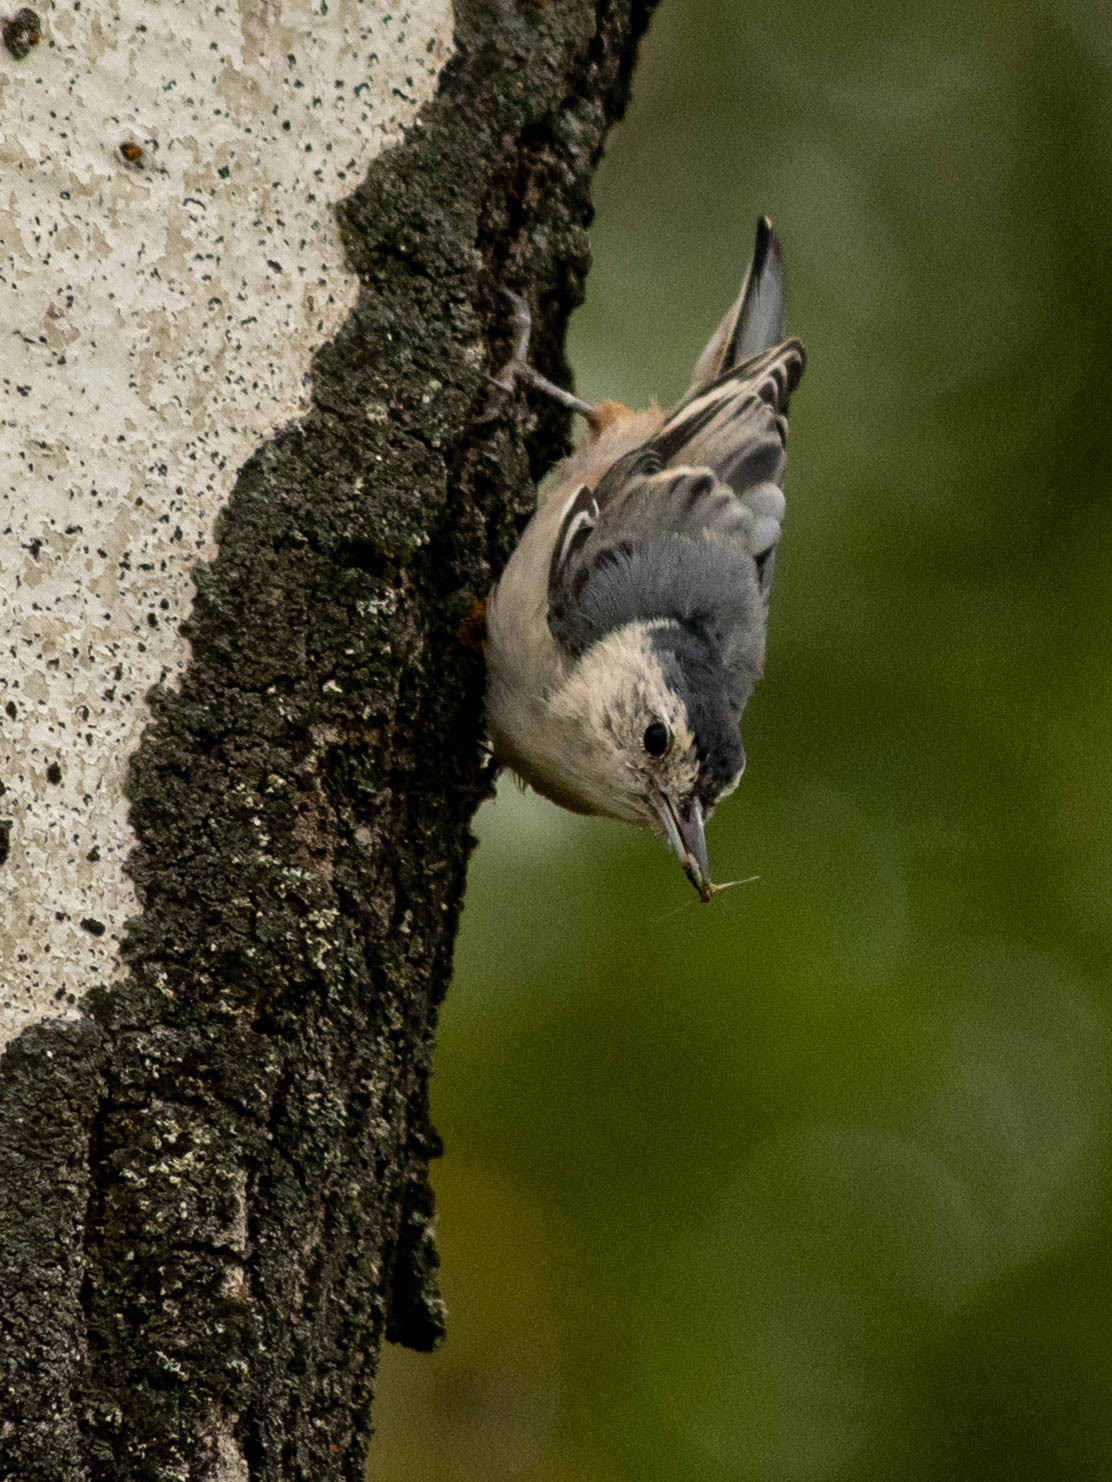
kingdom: Animalia
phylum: Chordata
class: Aves
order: Passeriformes
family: Sittidae
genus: Sitta
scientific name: Sitta carolinensis
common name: White-breasted nuthatch
